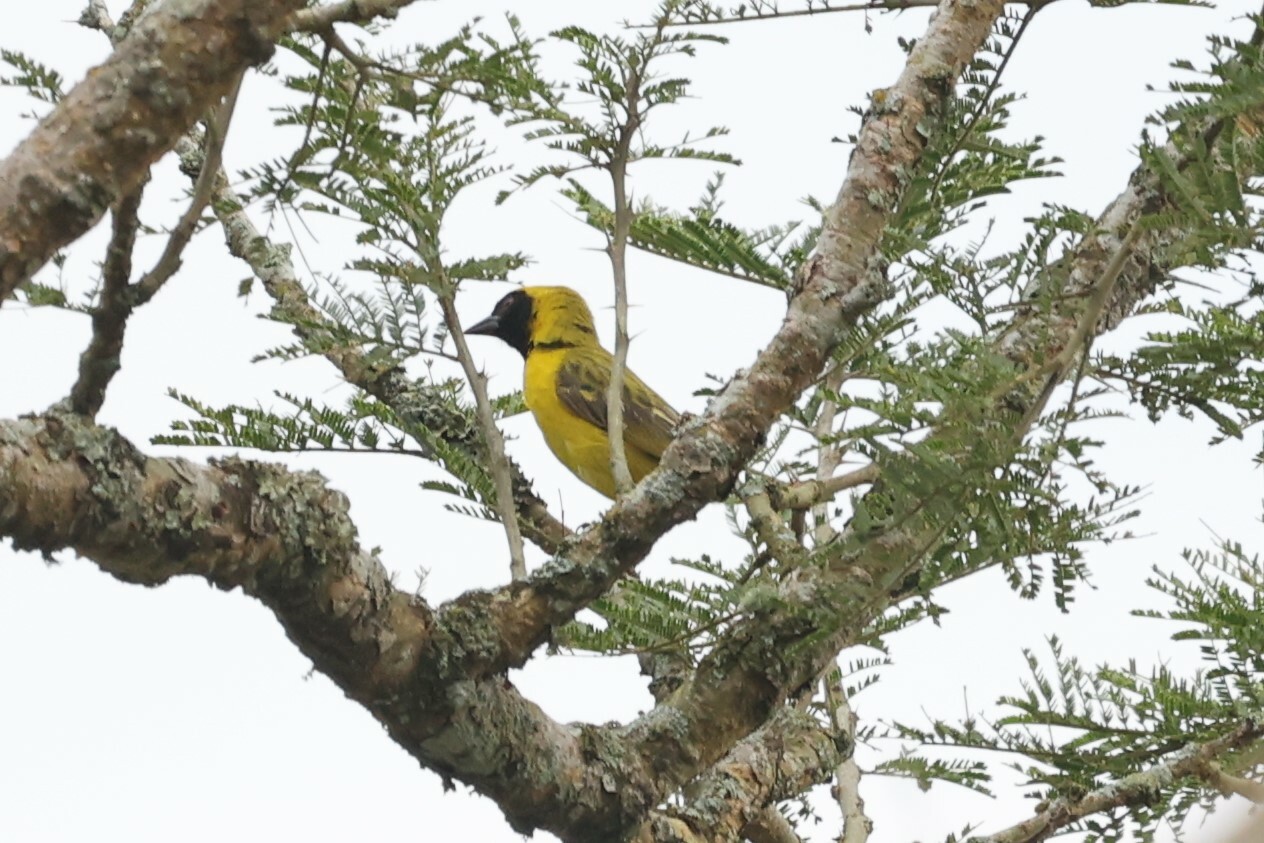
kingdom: Animalia
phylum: Chordata
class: Aves
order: Passeriformes
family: Ploceidae
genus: Ploceus
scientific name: Ploceus luteolus
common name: Little weaver
